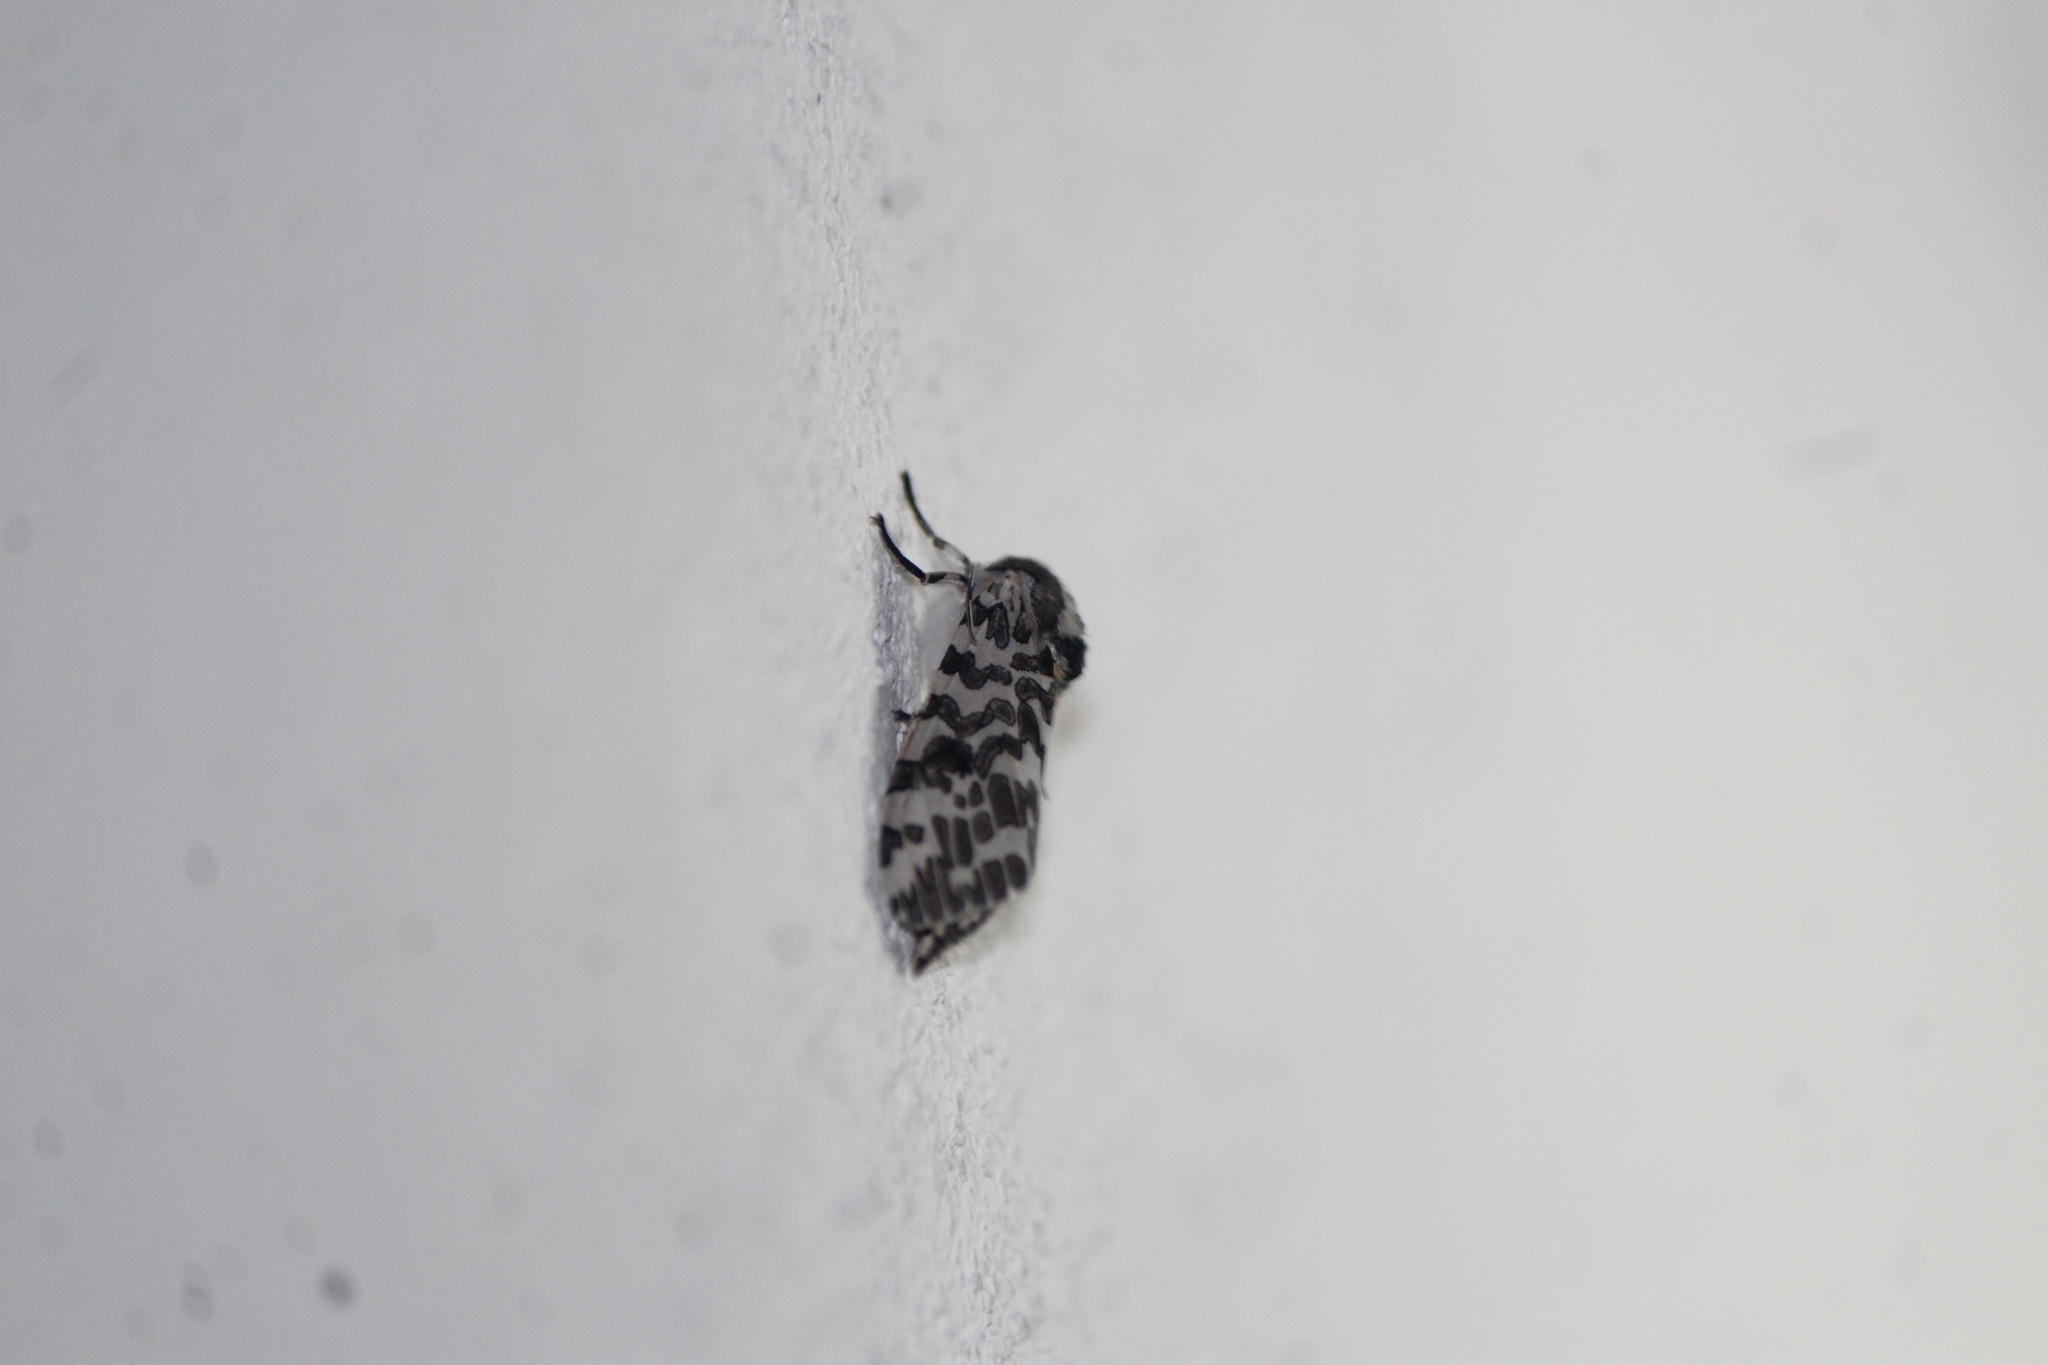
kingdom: Animalia
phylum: Arthropoda
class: Insecta
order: Lepidoptera
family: Erebidae
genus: Hypercompe
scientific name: Hypercompe suffusa
